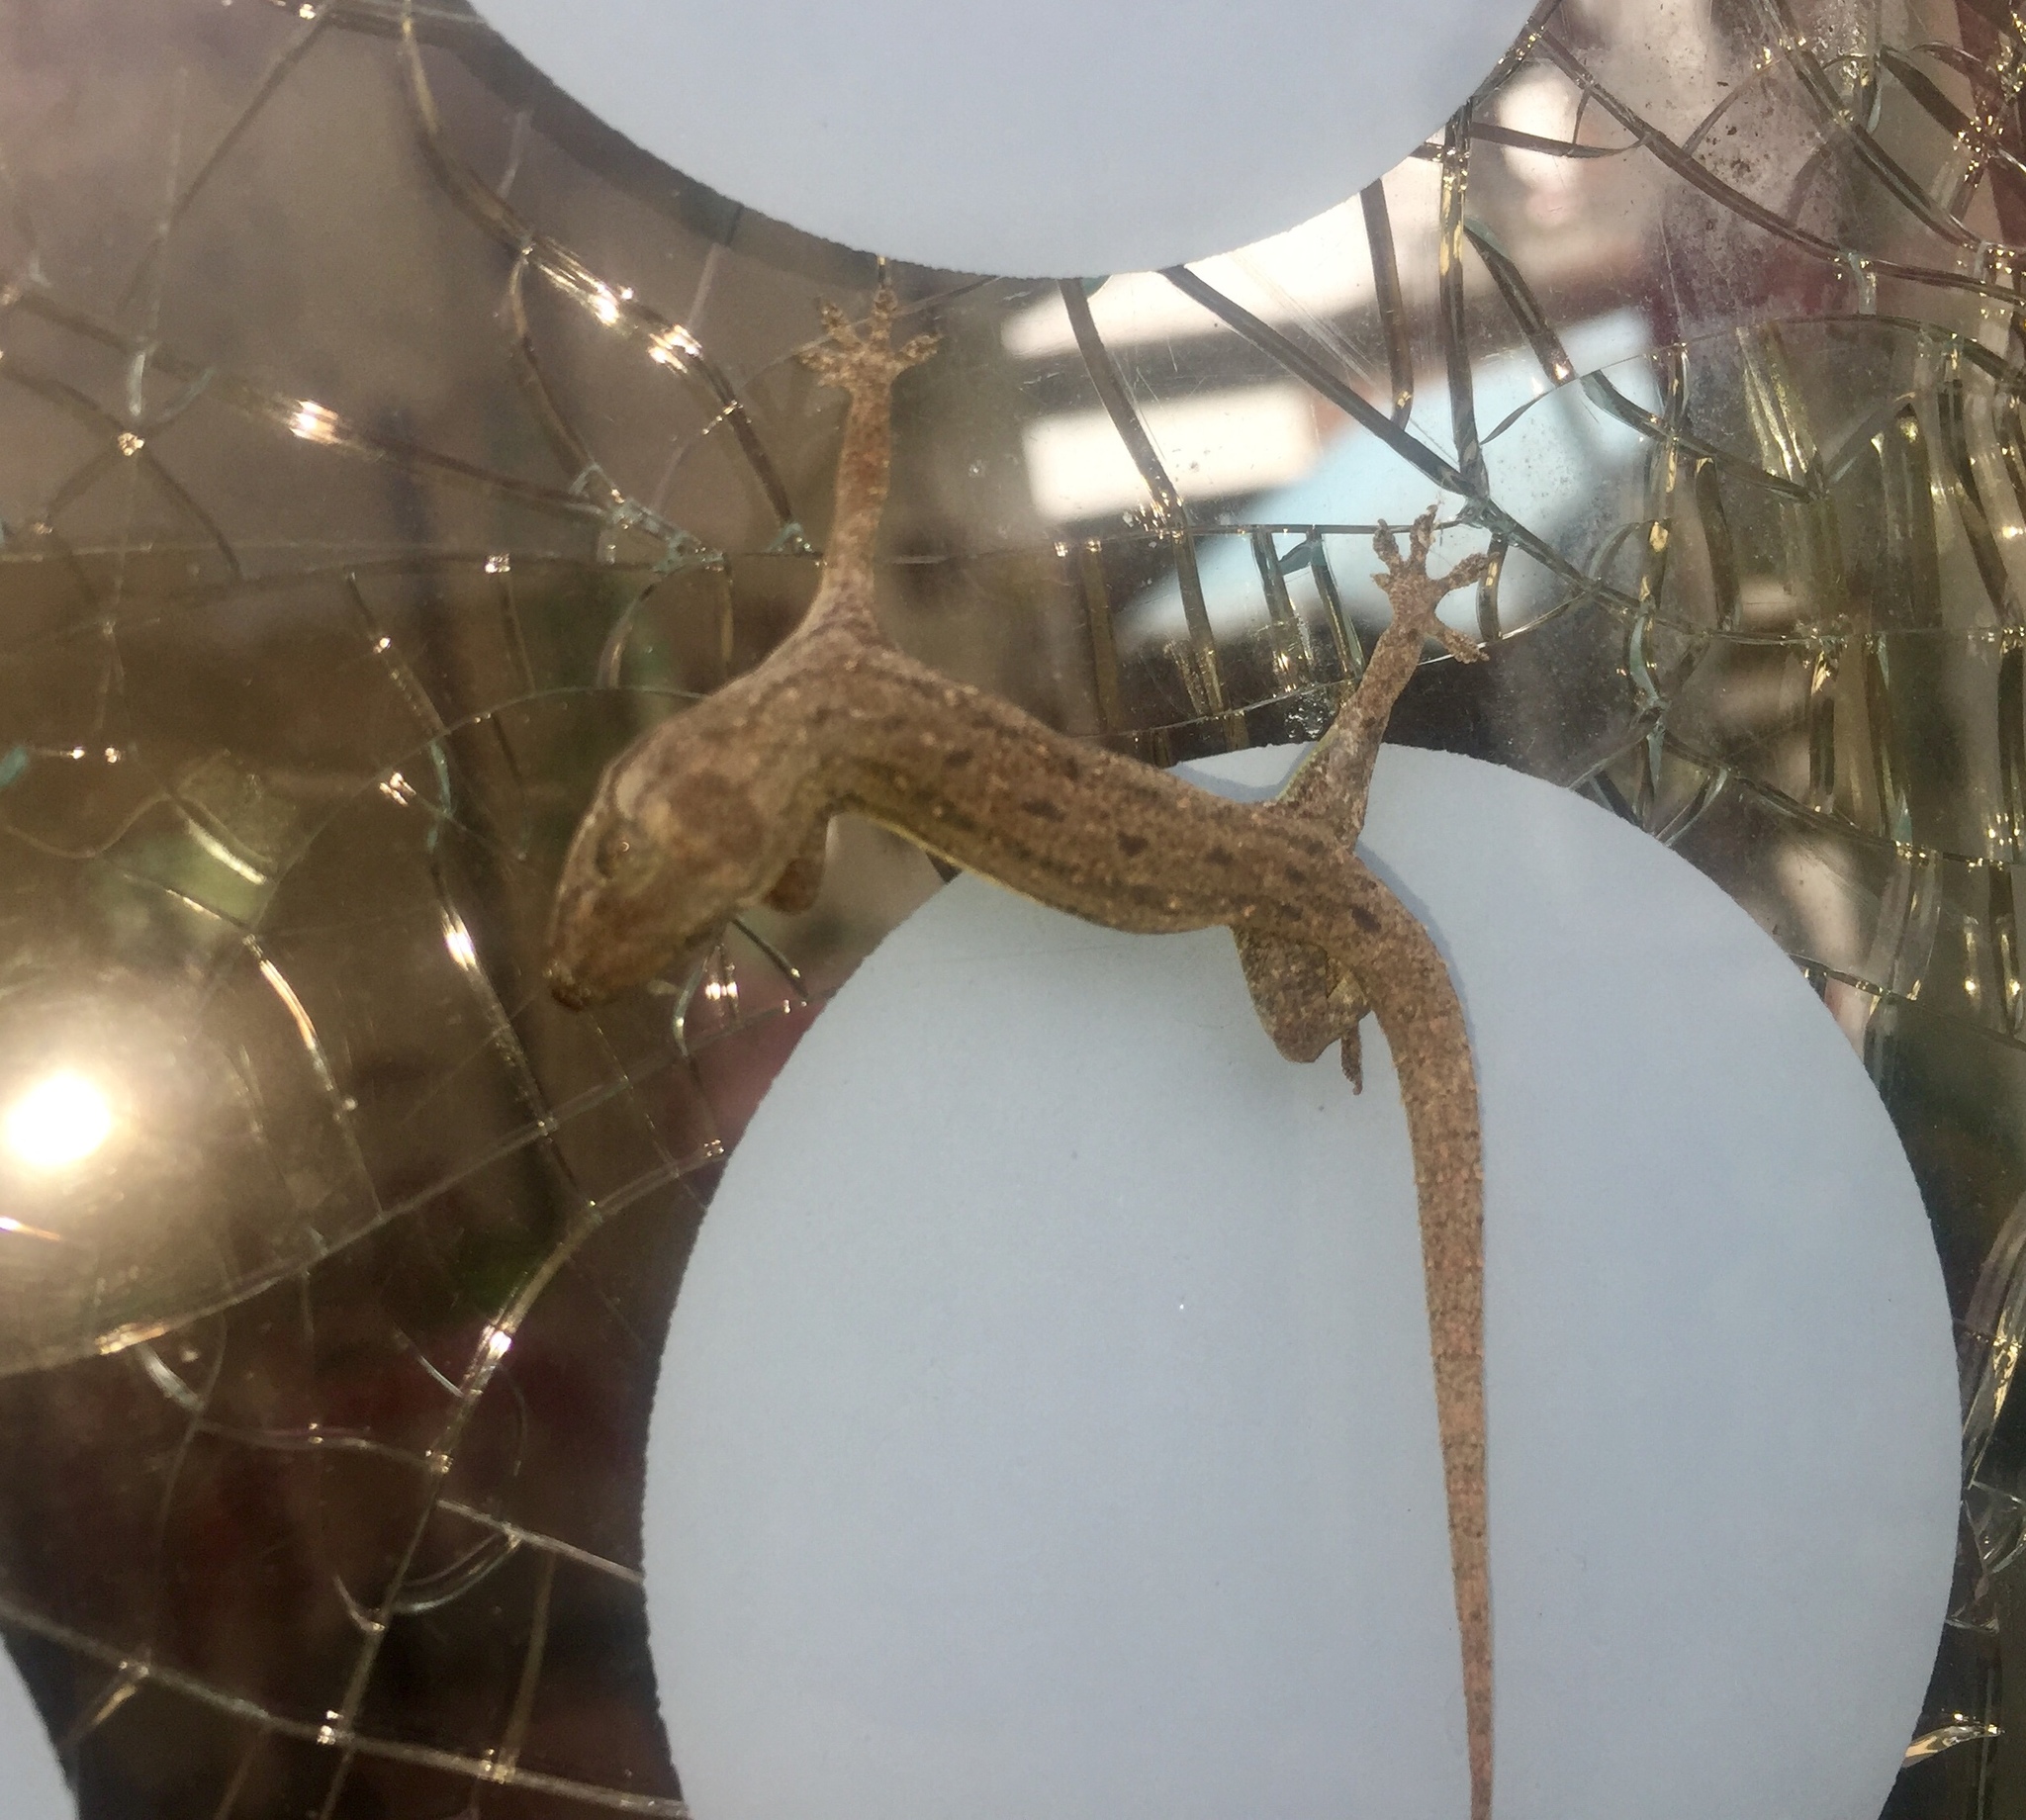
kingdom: Animalia
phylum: Chordata
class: Squamata
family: Gekkonidae
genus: Hemidactylus
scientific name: Hemidactylus frenatus
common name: Common house gecko
